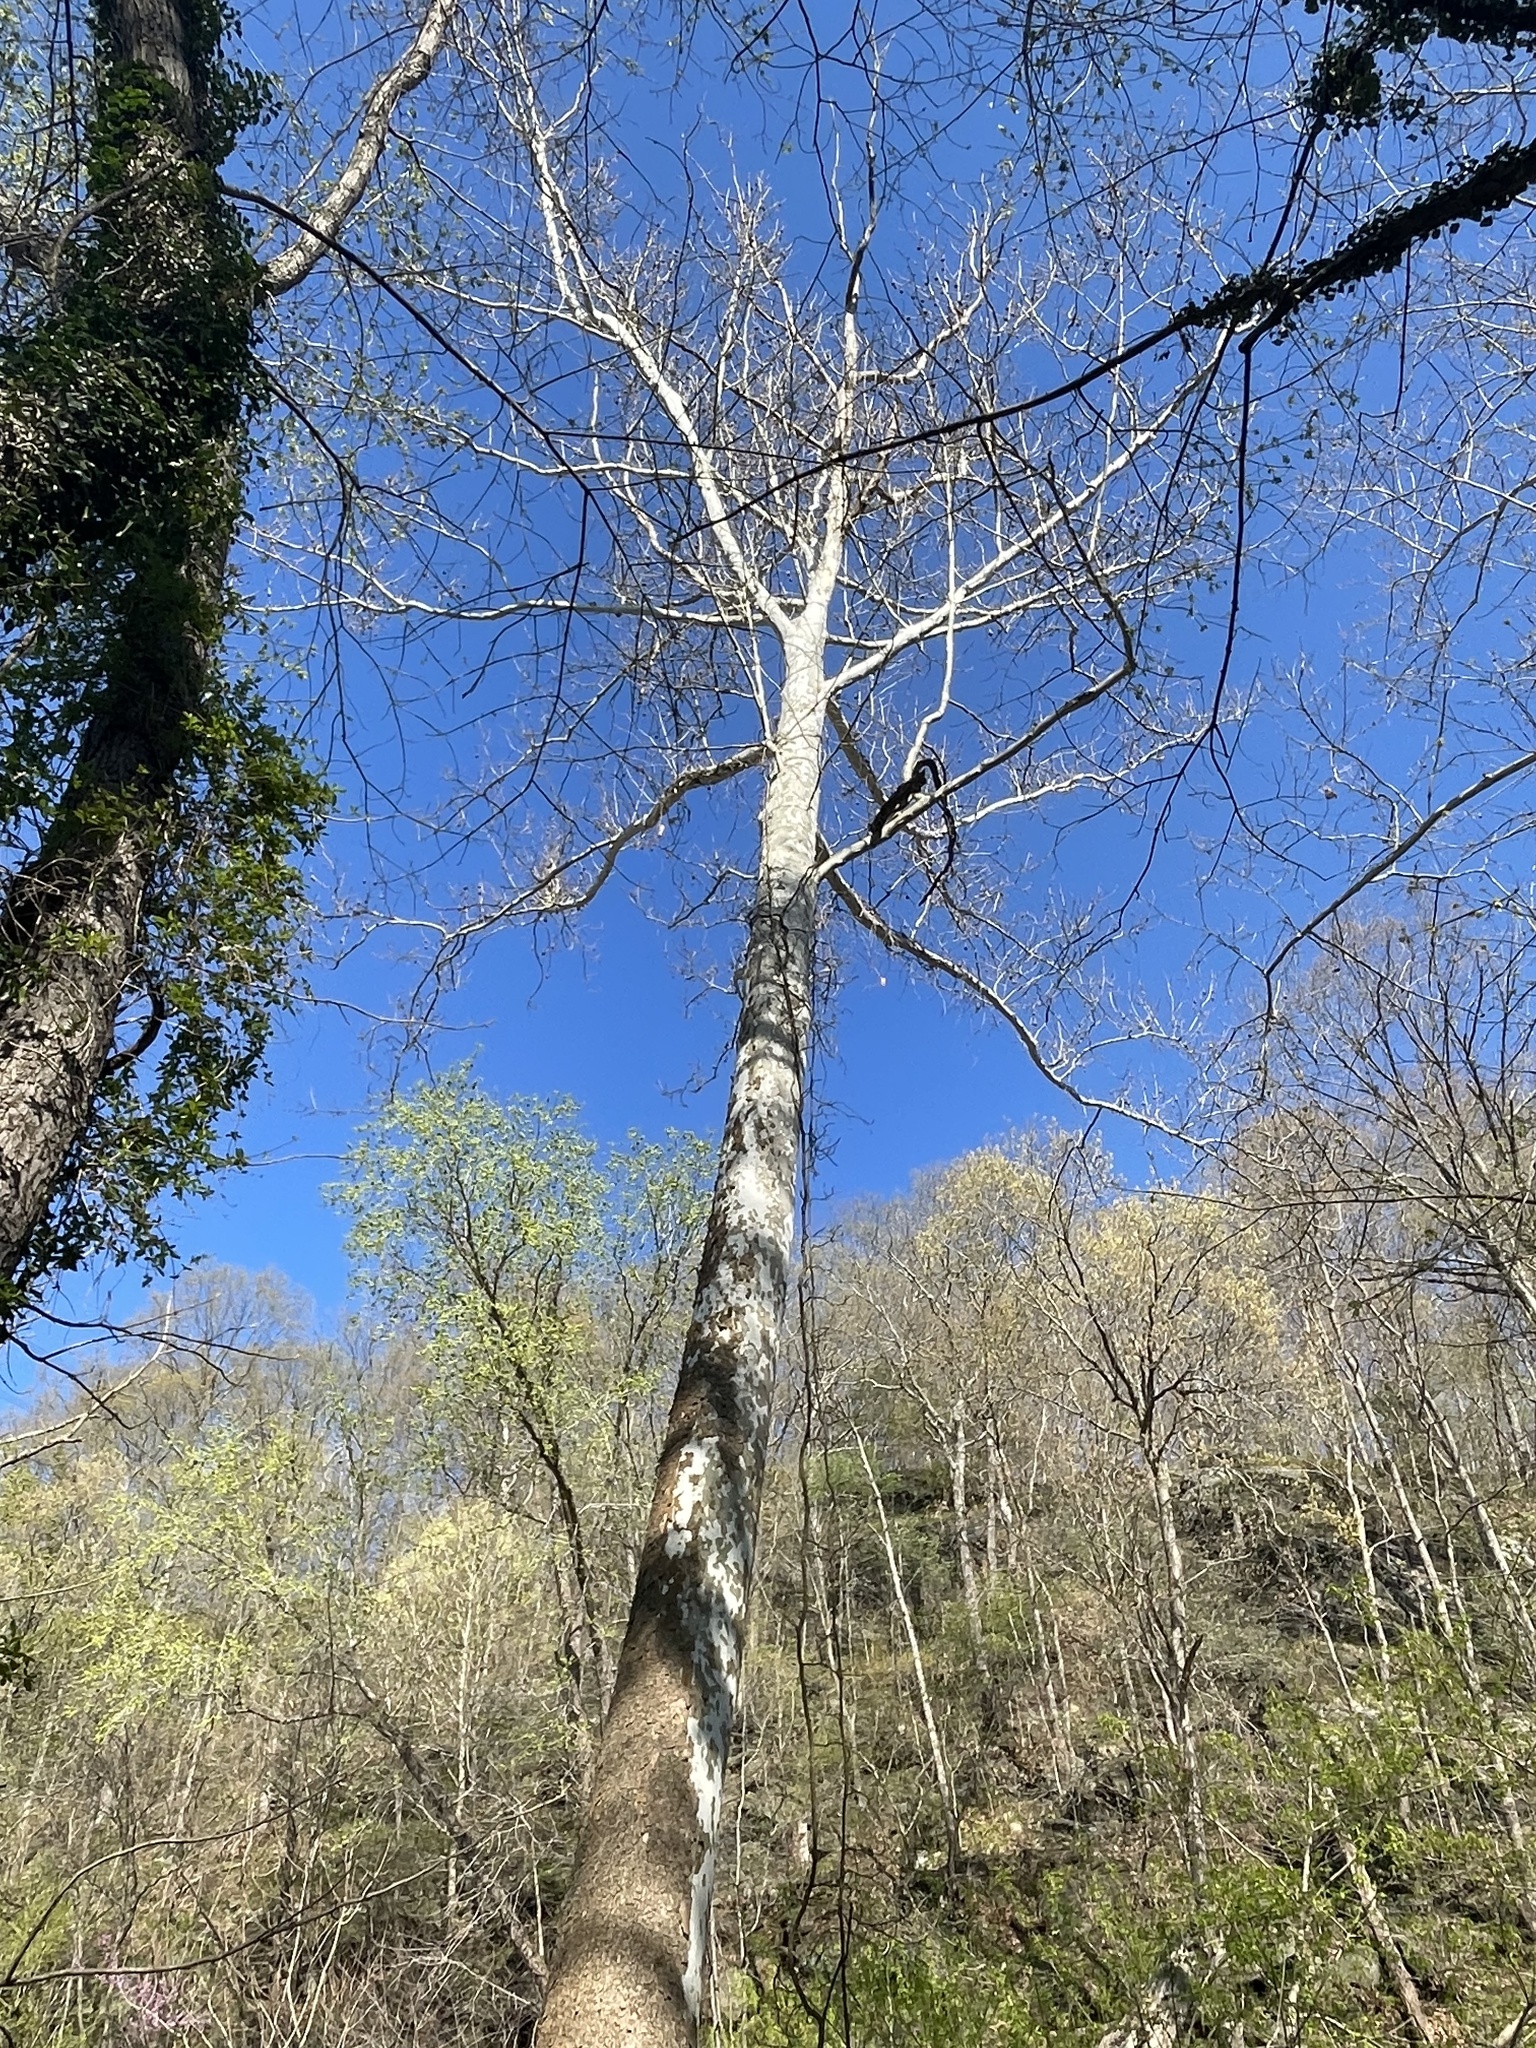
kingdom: Plantae
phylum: Tracheophyta
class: Magnoliopsida
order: Proteales
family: Platanaceae
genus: Platanus
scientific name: Platanus occidentalis
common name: American sycamore
